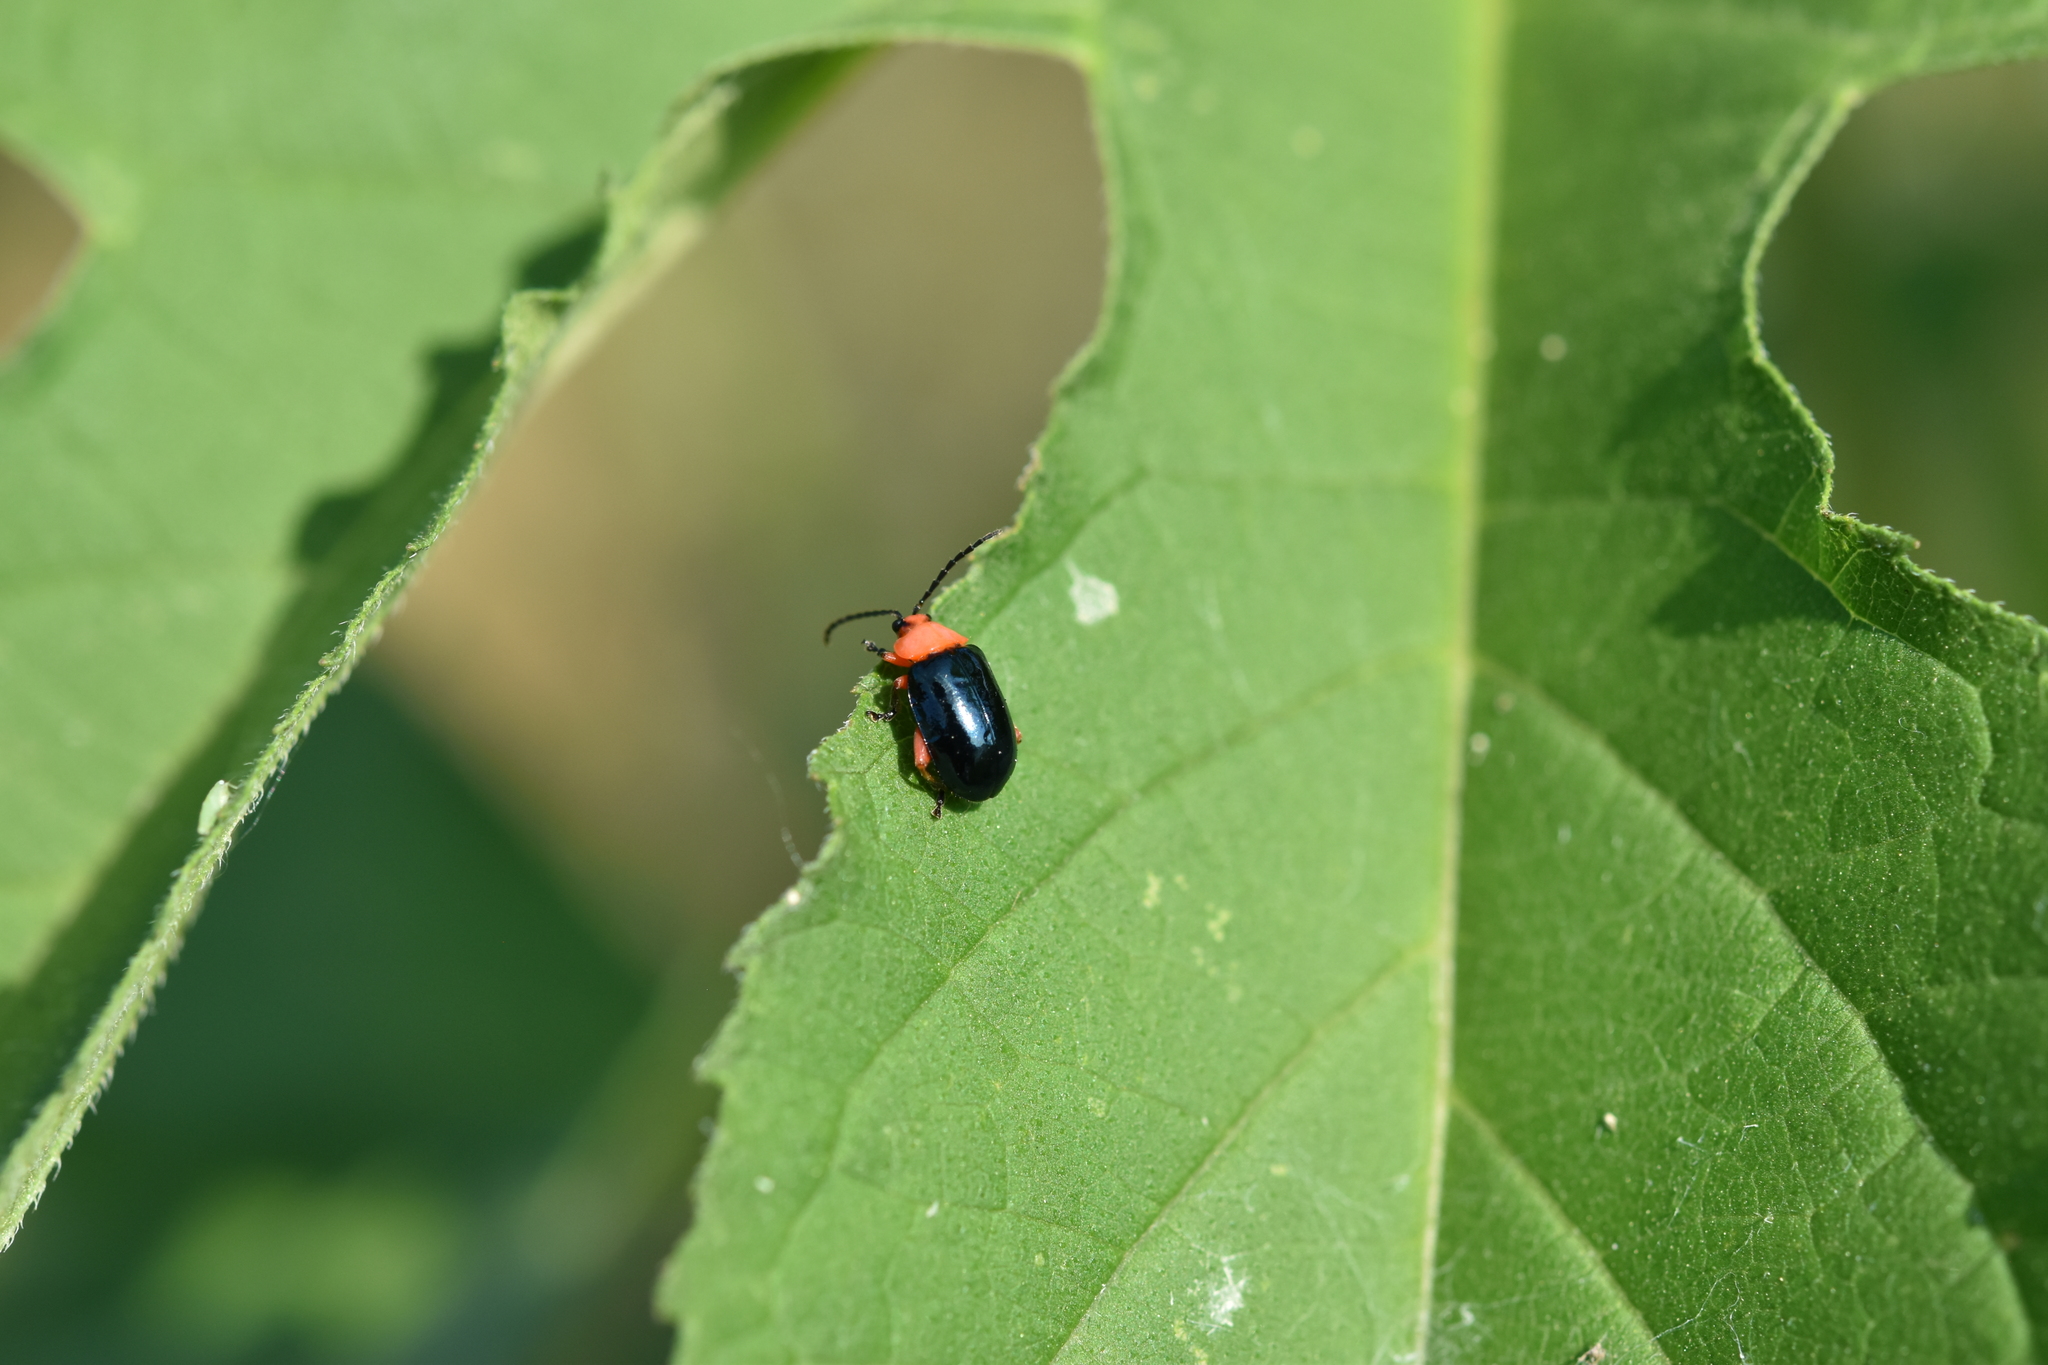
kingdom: Animalia
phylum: Arthropoda
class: Insecta
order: Coleoptera
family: Chrysomelidae
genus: Asphaera
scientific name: Asphaera lustrans
